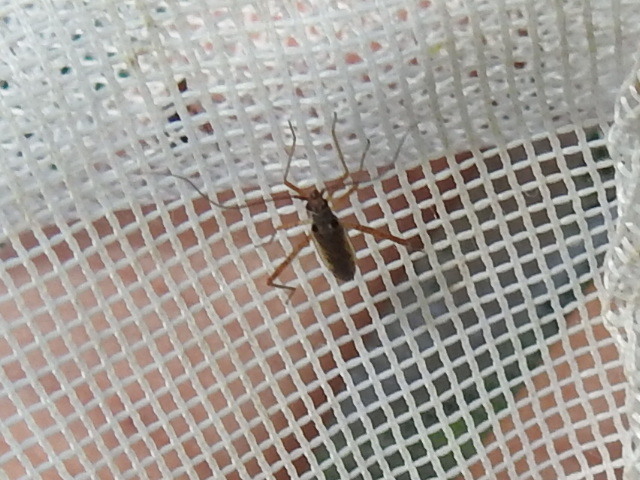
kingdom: Animalia
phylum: Arthropoda
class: Insecta
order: Hemiptera
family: Miridae
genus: Collaria
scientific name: Collaria oculata
